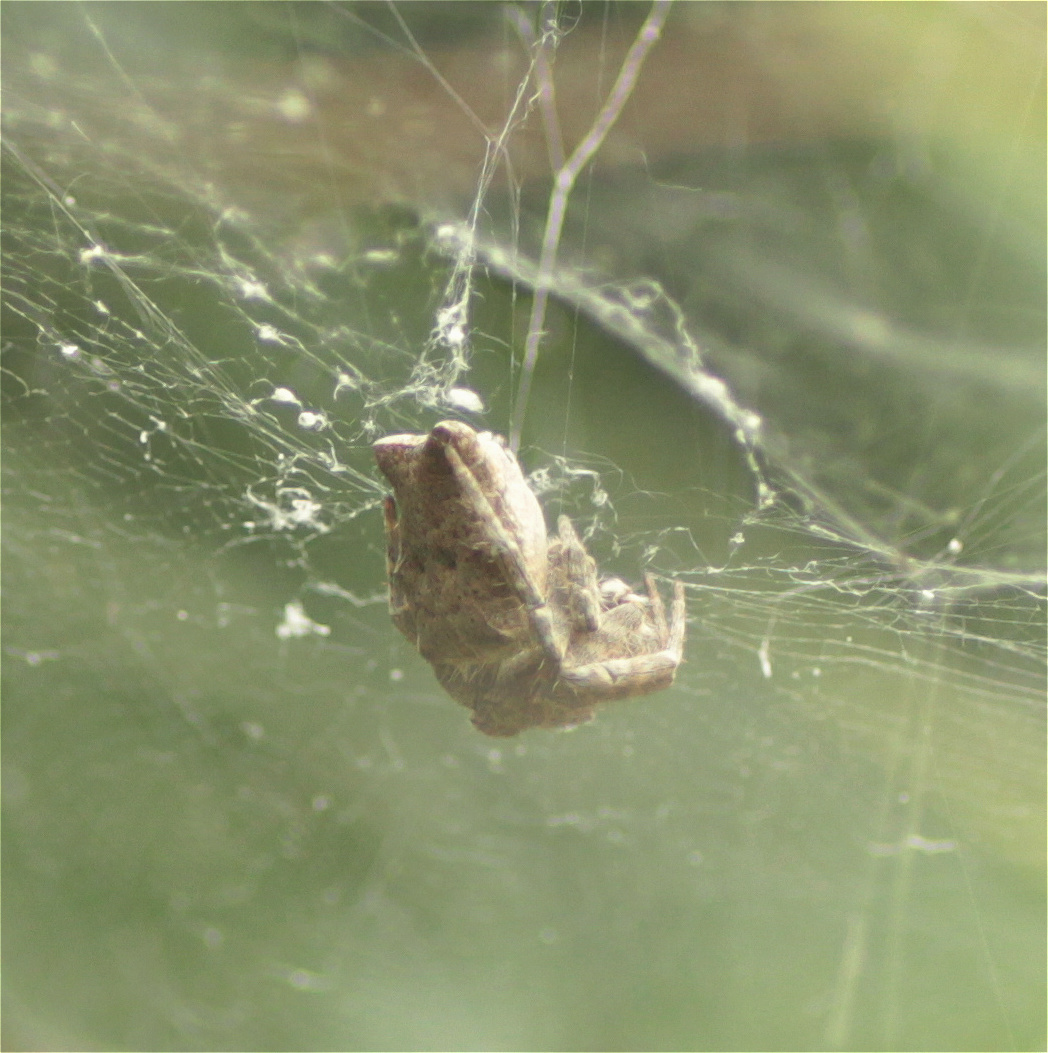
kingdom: Animalia
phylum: Arthropoda
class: Arachnida
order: Araneae
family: Araneidae
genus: Cyrtophora
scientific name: Cyrtophora citricola
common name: Orb weavers
